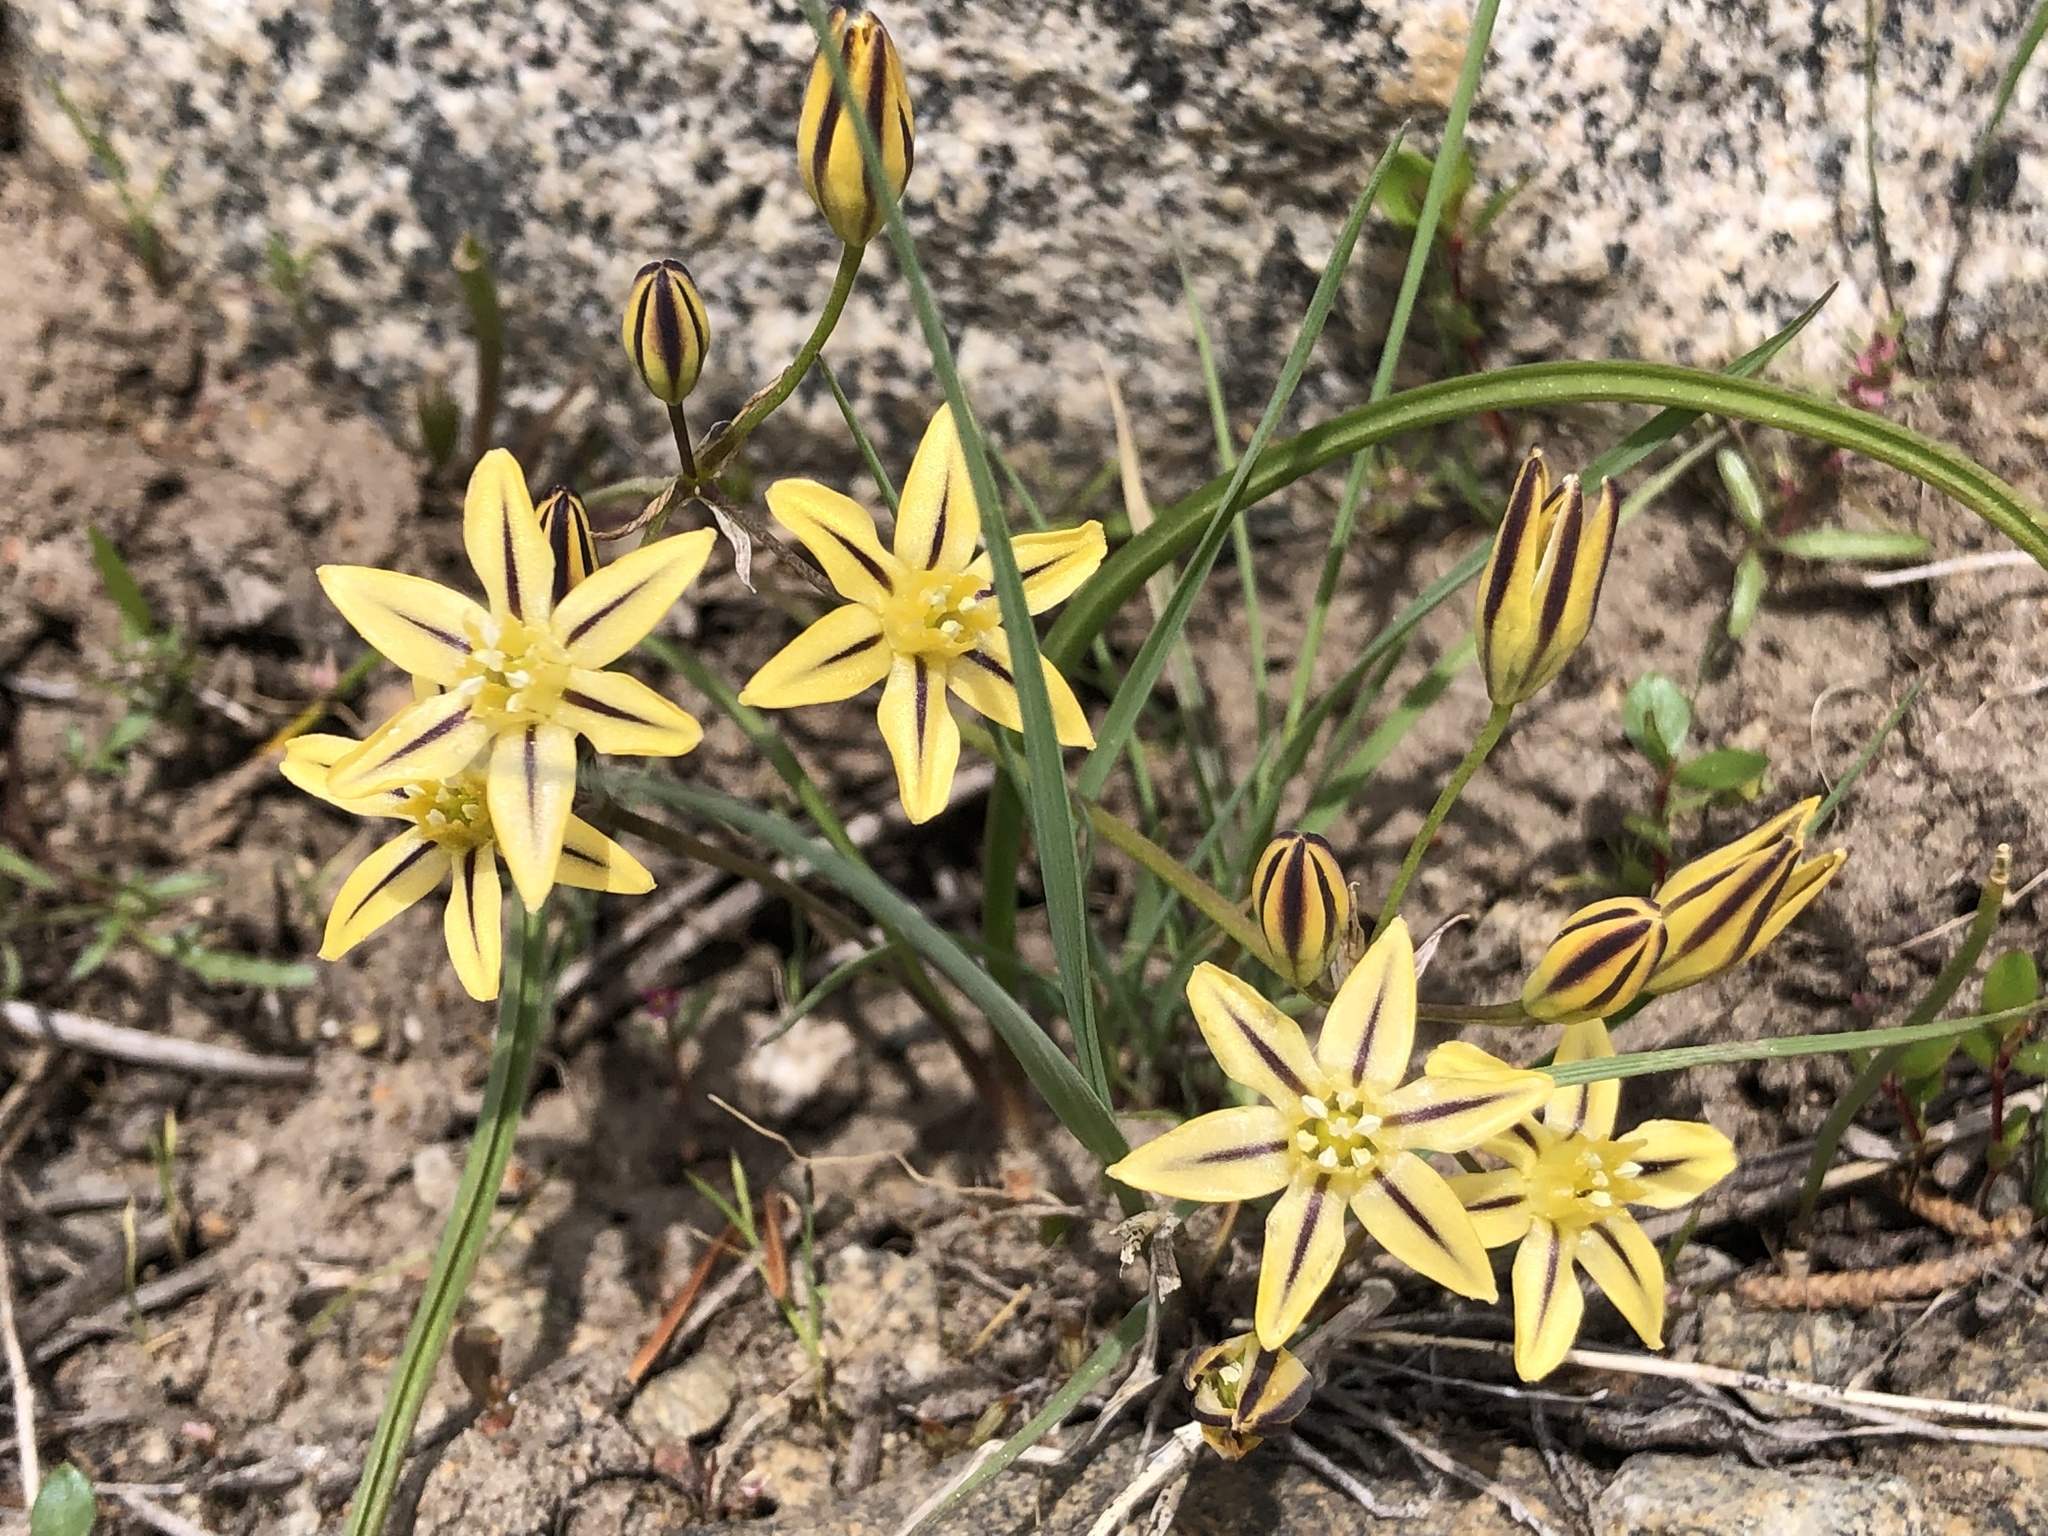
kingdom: Plantae
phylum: Tracheophyta
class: Liliopsida
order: Asparagales
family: Asparagaceae
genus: Triteleia
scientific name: Triteleia ixioides
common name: Yellow-brodiaea
